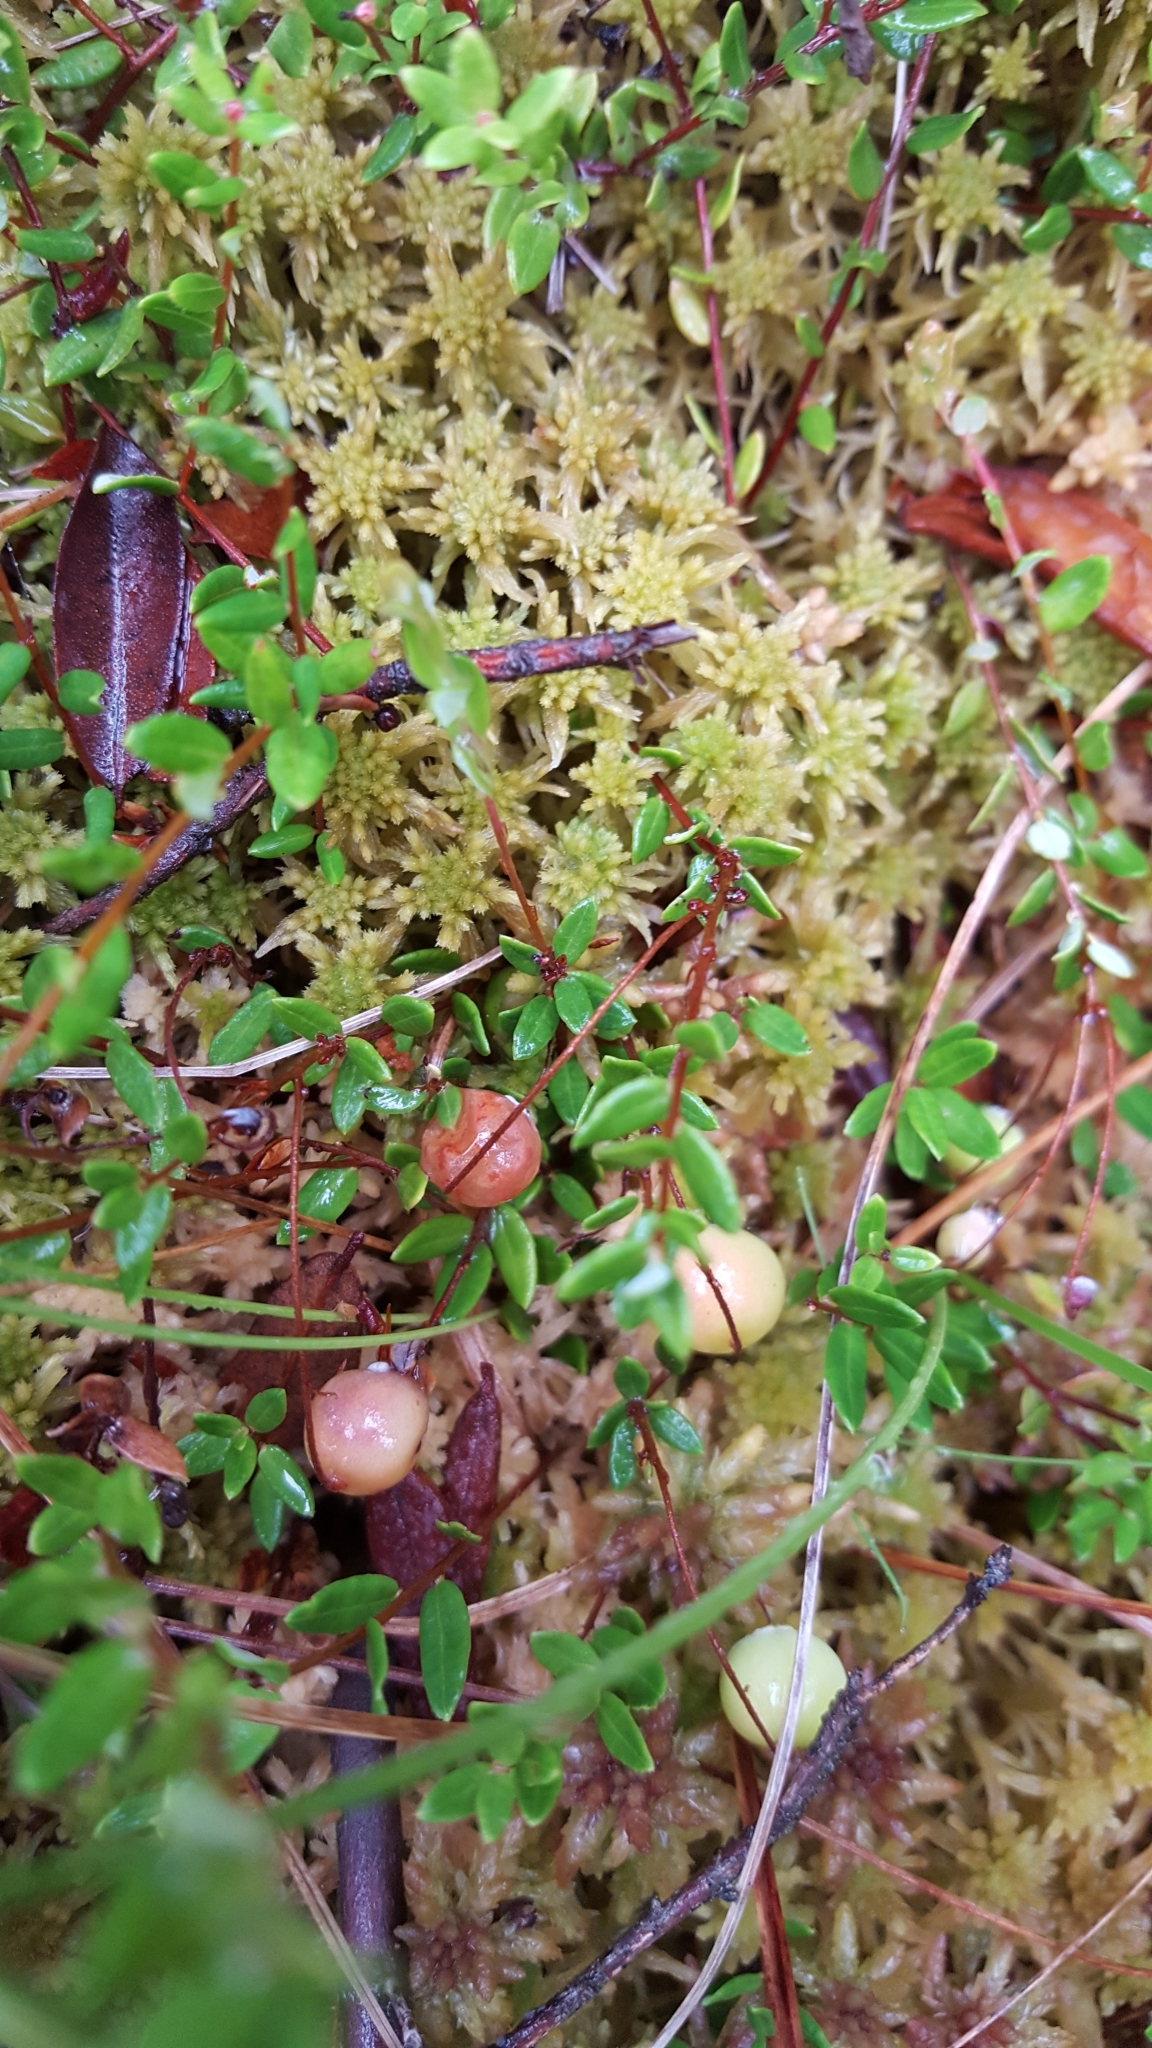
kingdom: Plantae
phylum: Tracheophyta
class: Magnoliopsida
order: Ericales
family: Ericaceae
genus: Vaccinium
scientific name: Vaccinium oxycoccos
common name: Cranberry
